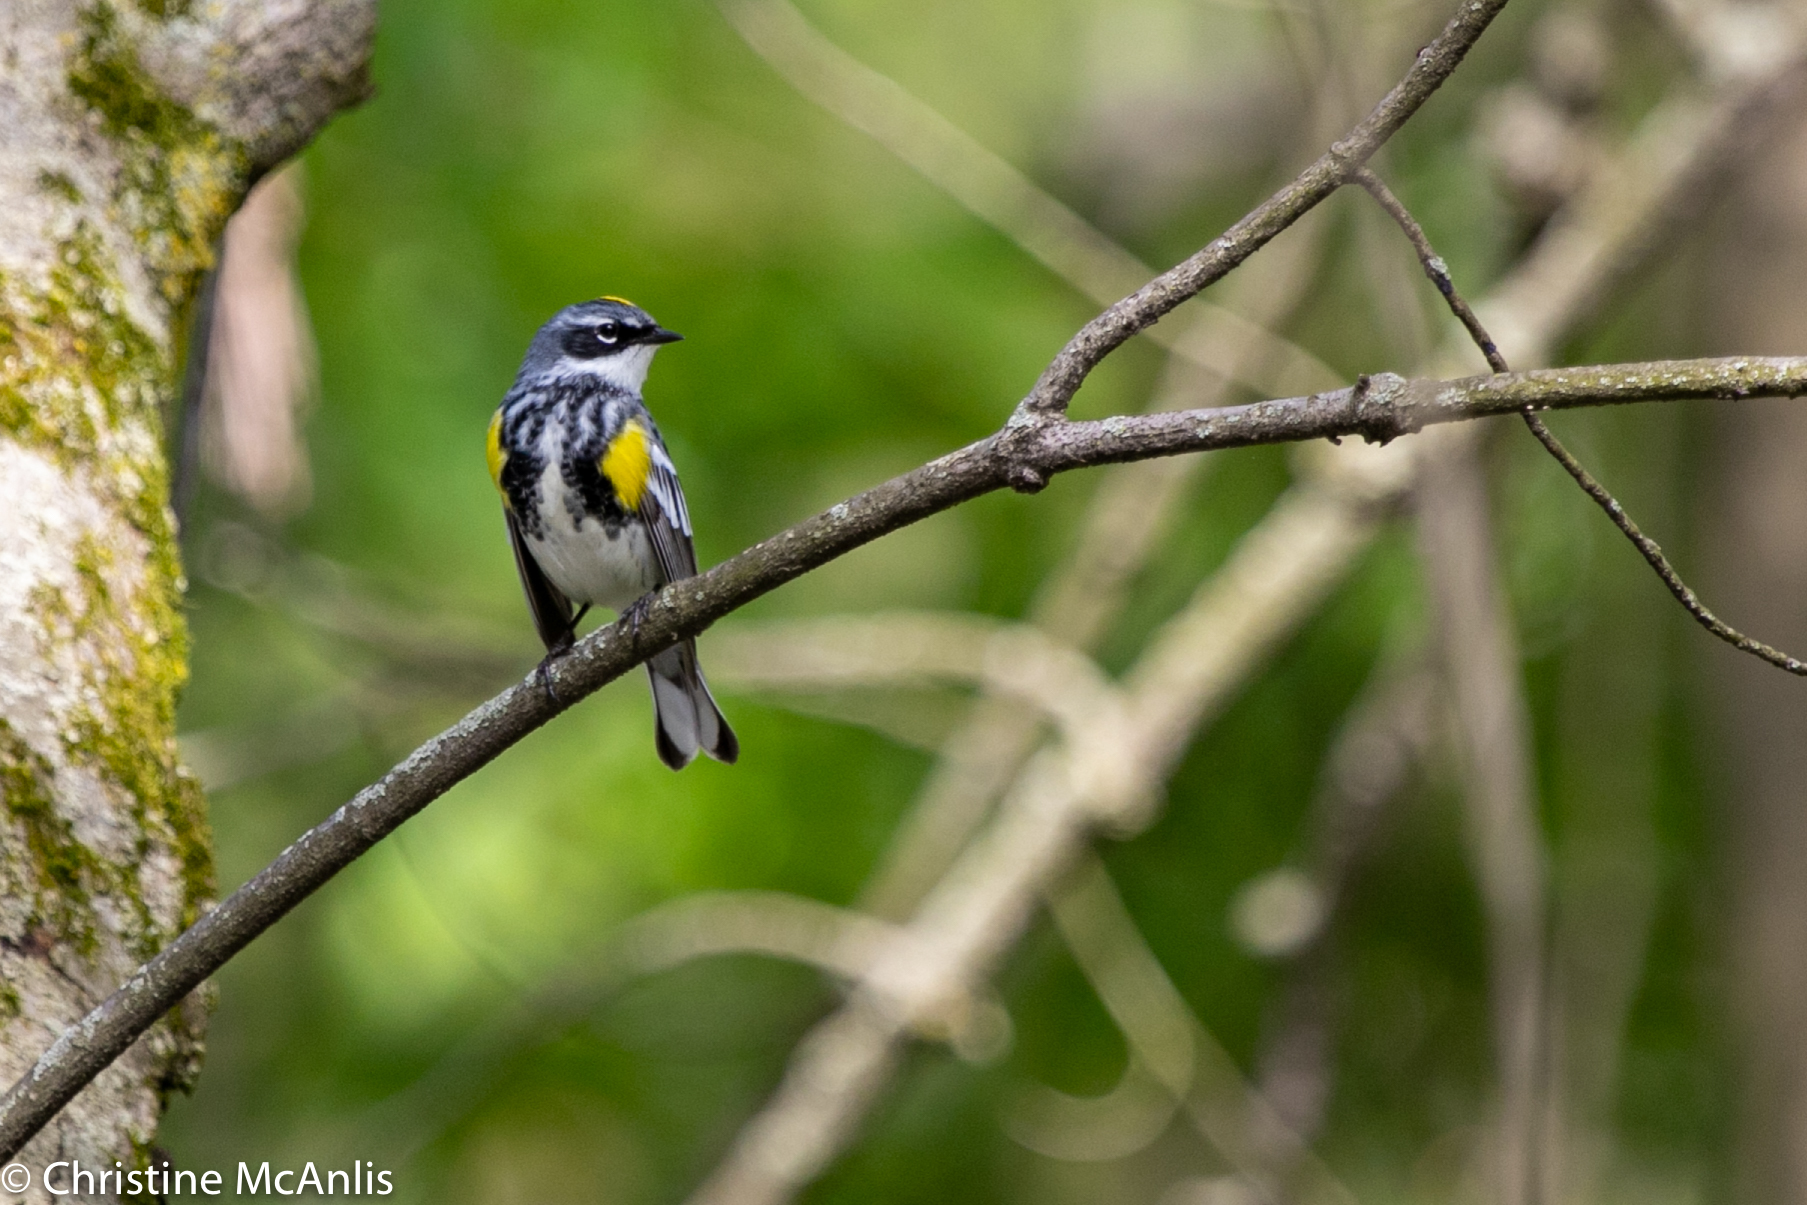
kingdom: Animalia
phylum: Chordata
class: Aves
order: Passeriformes
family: Parulidae
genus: Setophaga
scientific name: Setophaga coronata
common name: Myrtle warbler
